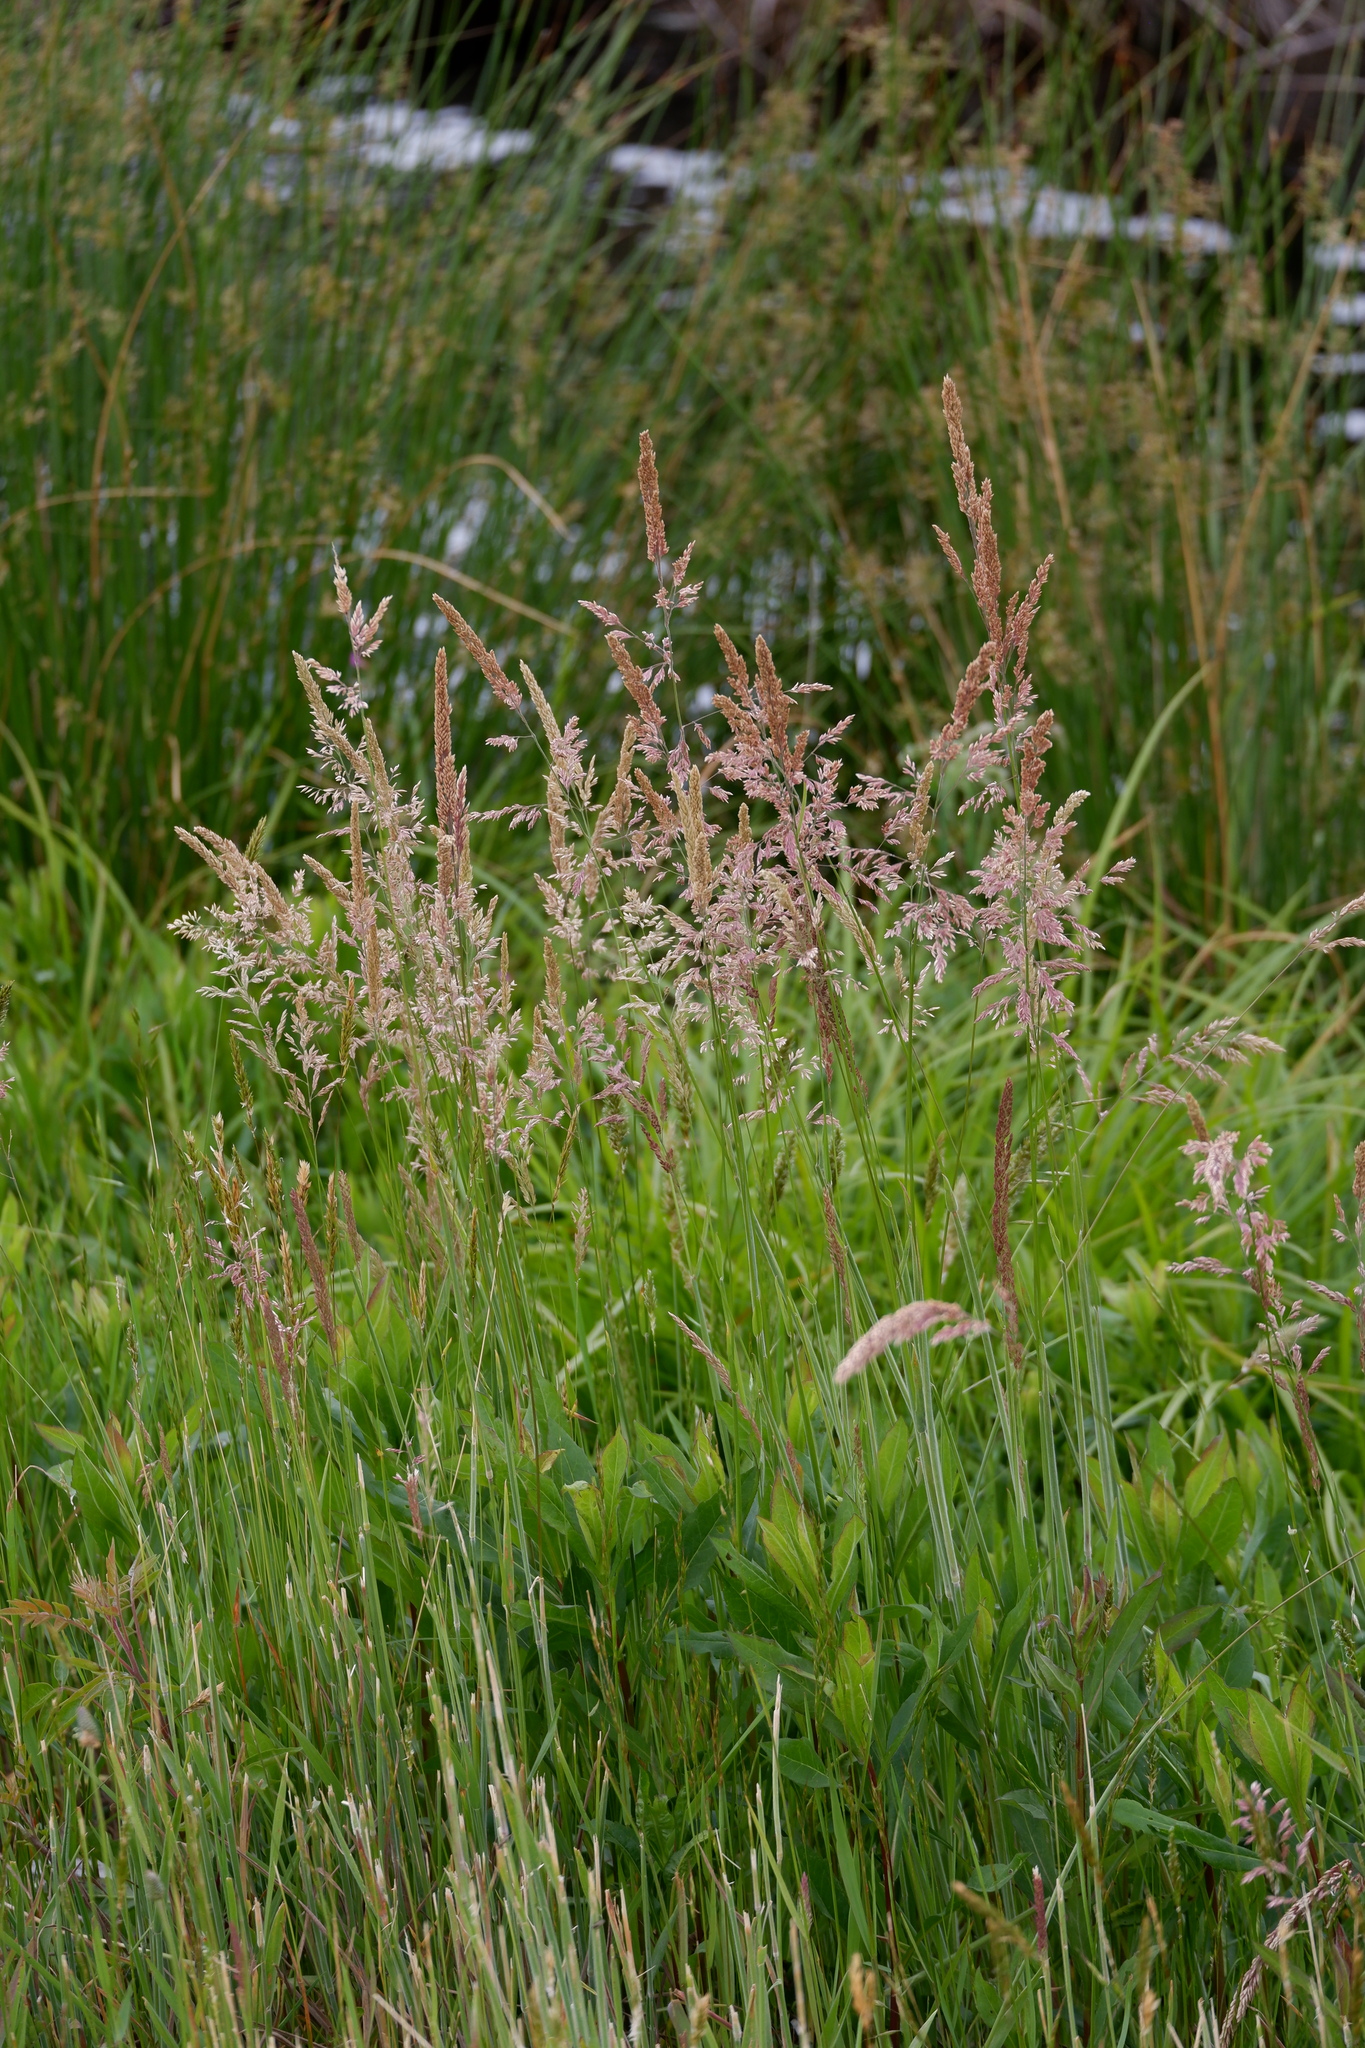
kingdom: Plantae
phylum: Tracheophyta
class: Liliopsida
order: Poales
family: Poaceae
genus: Holcus
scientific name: Holcus lanatus
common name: Yorkshire-fog
